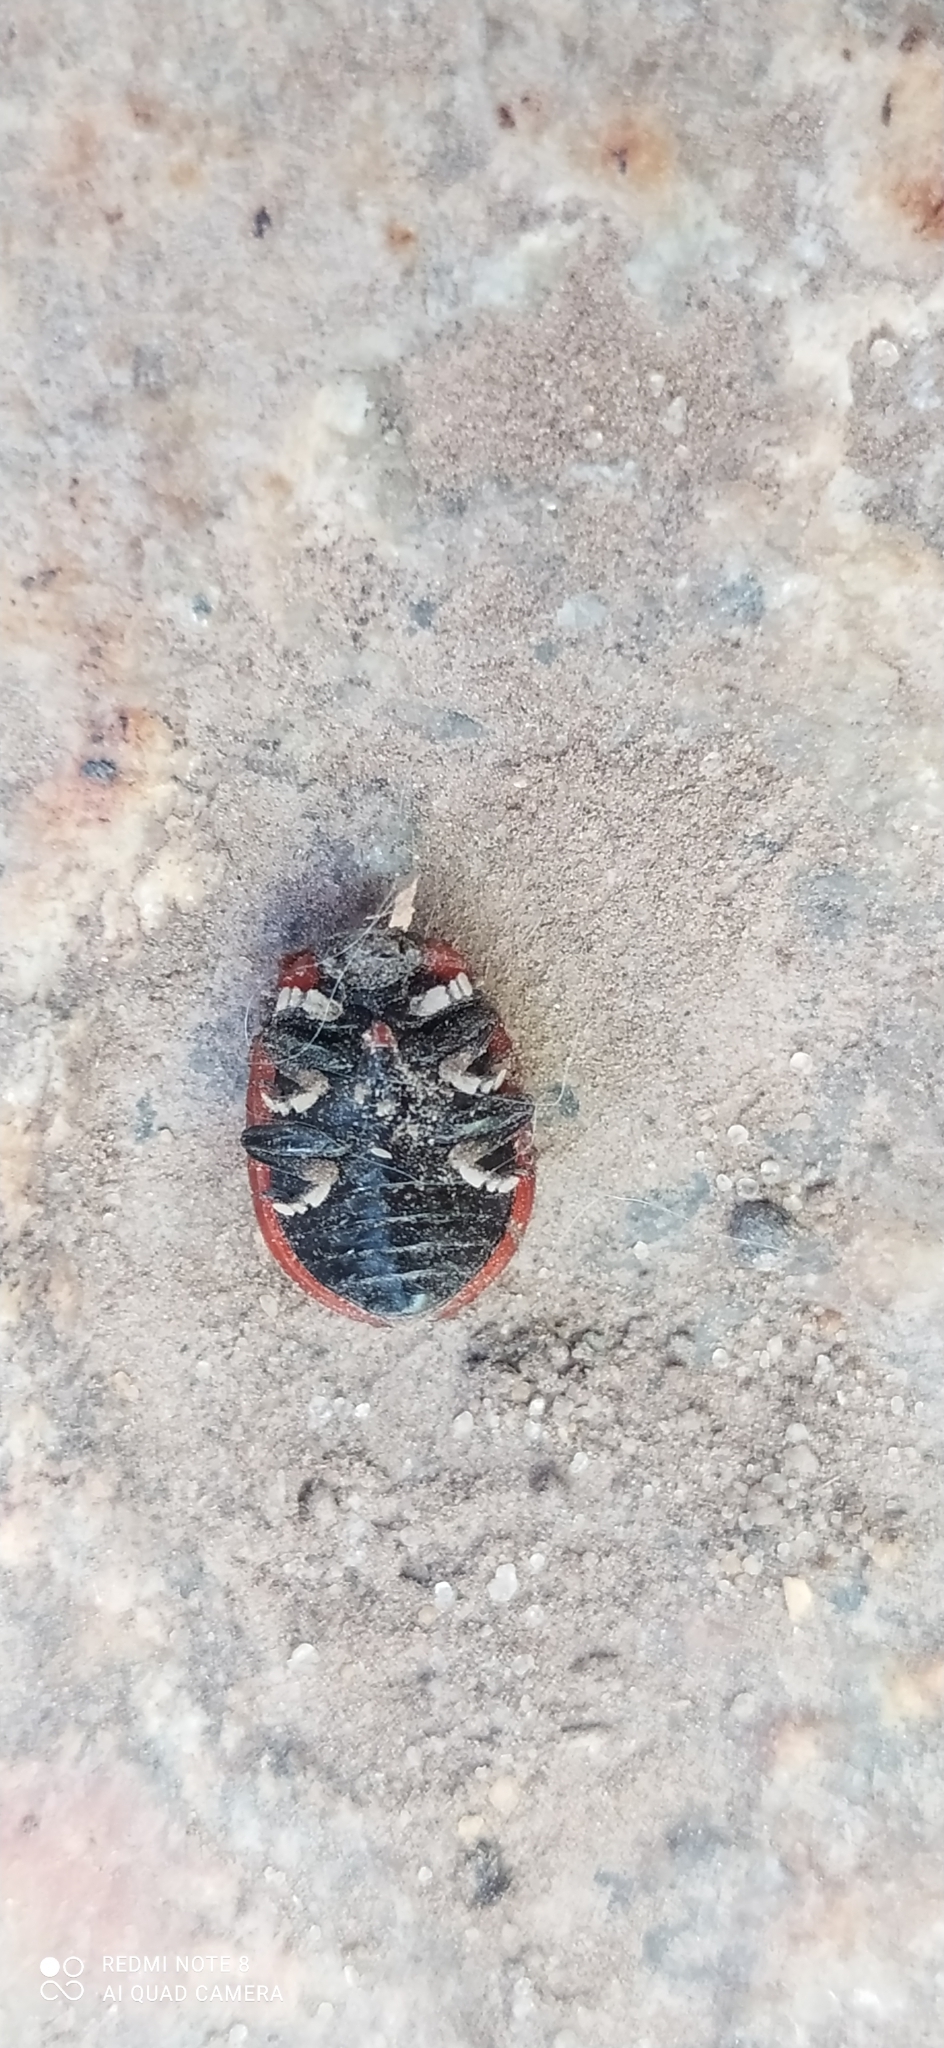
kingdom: Animalia
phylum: Arthropoda
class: Insecta
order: Coleoptera
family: Chrysomelidae
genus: Platyphora
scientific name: Platyphora
